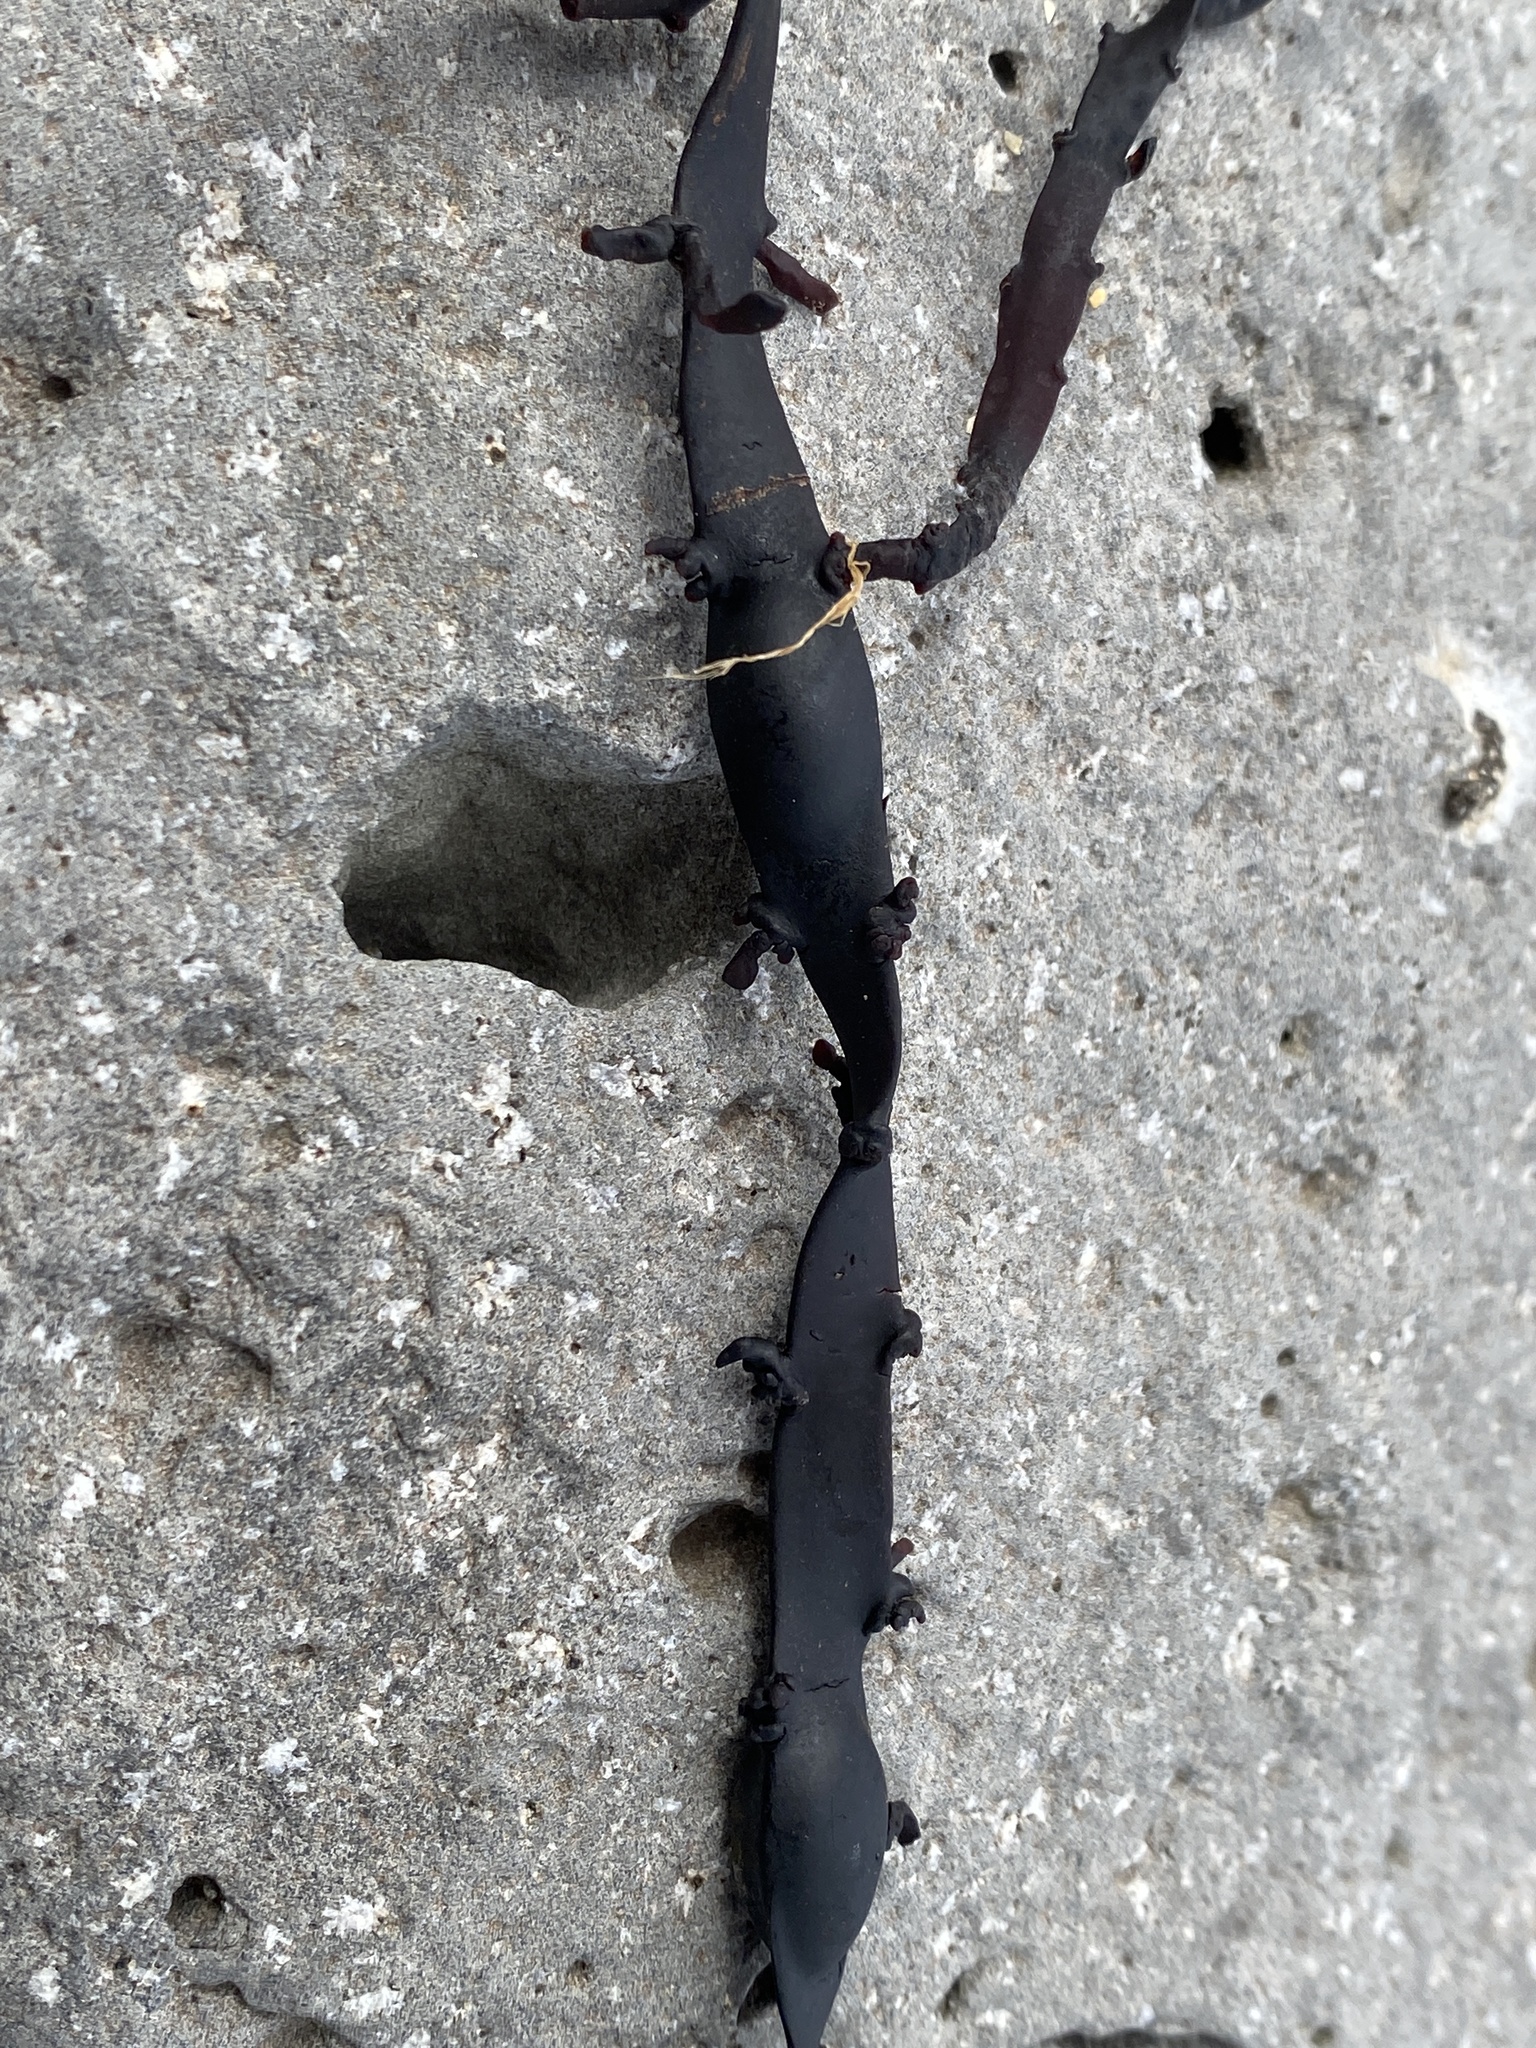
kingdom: Chromista
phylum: Ochrophyta
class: Phaeophyceae
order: Fucales
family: Fucaceae
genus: Ascophyllum
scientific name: Ascophyllum nodosum
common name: Knotted wrack
